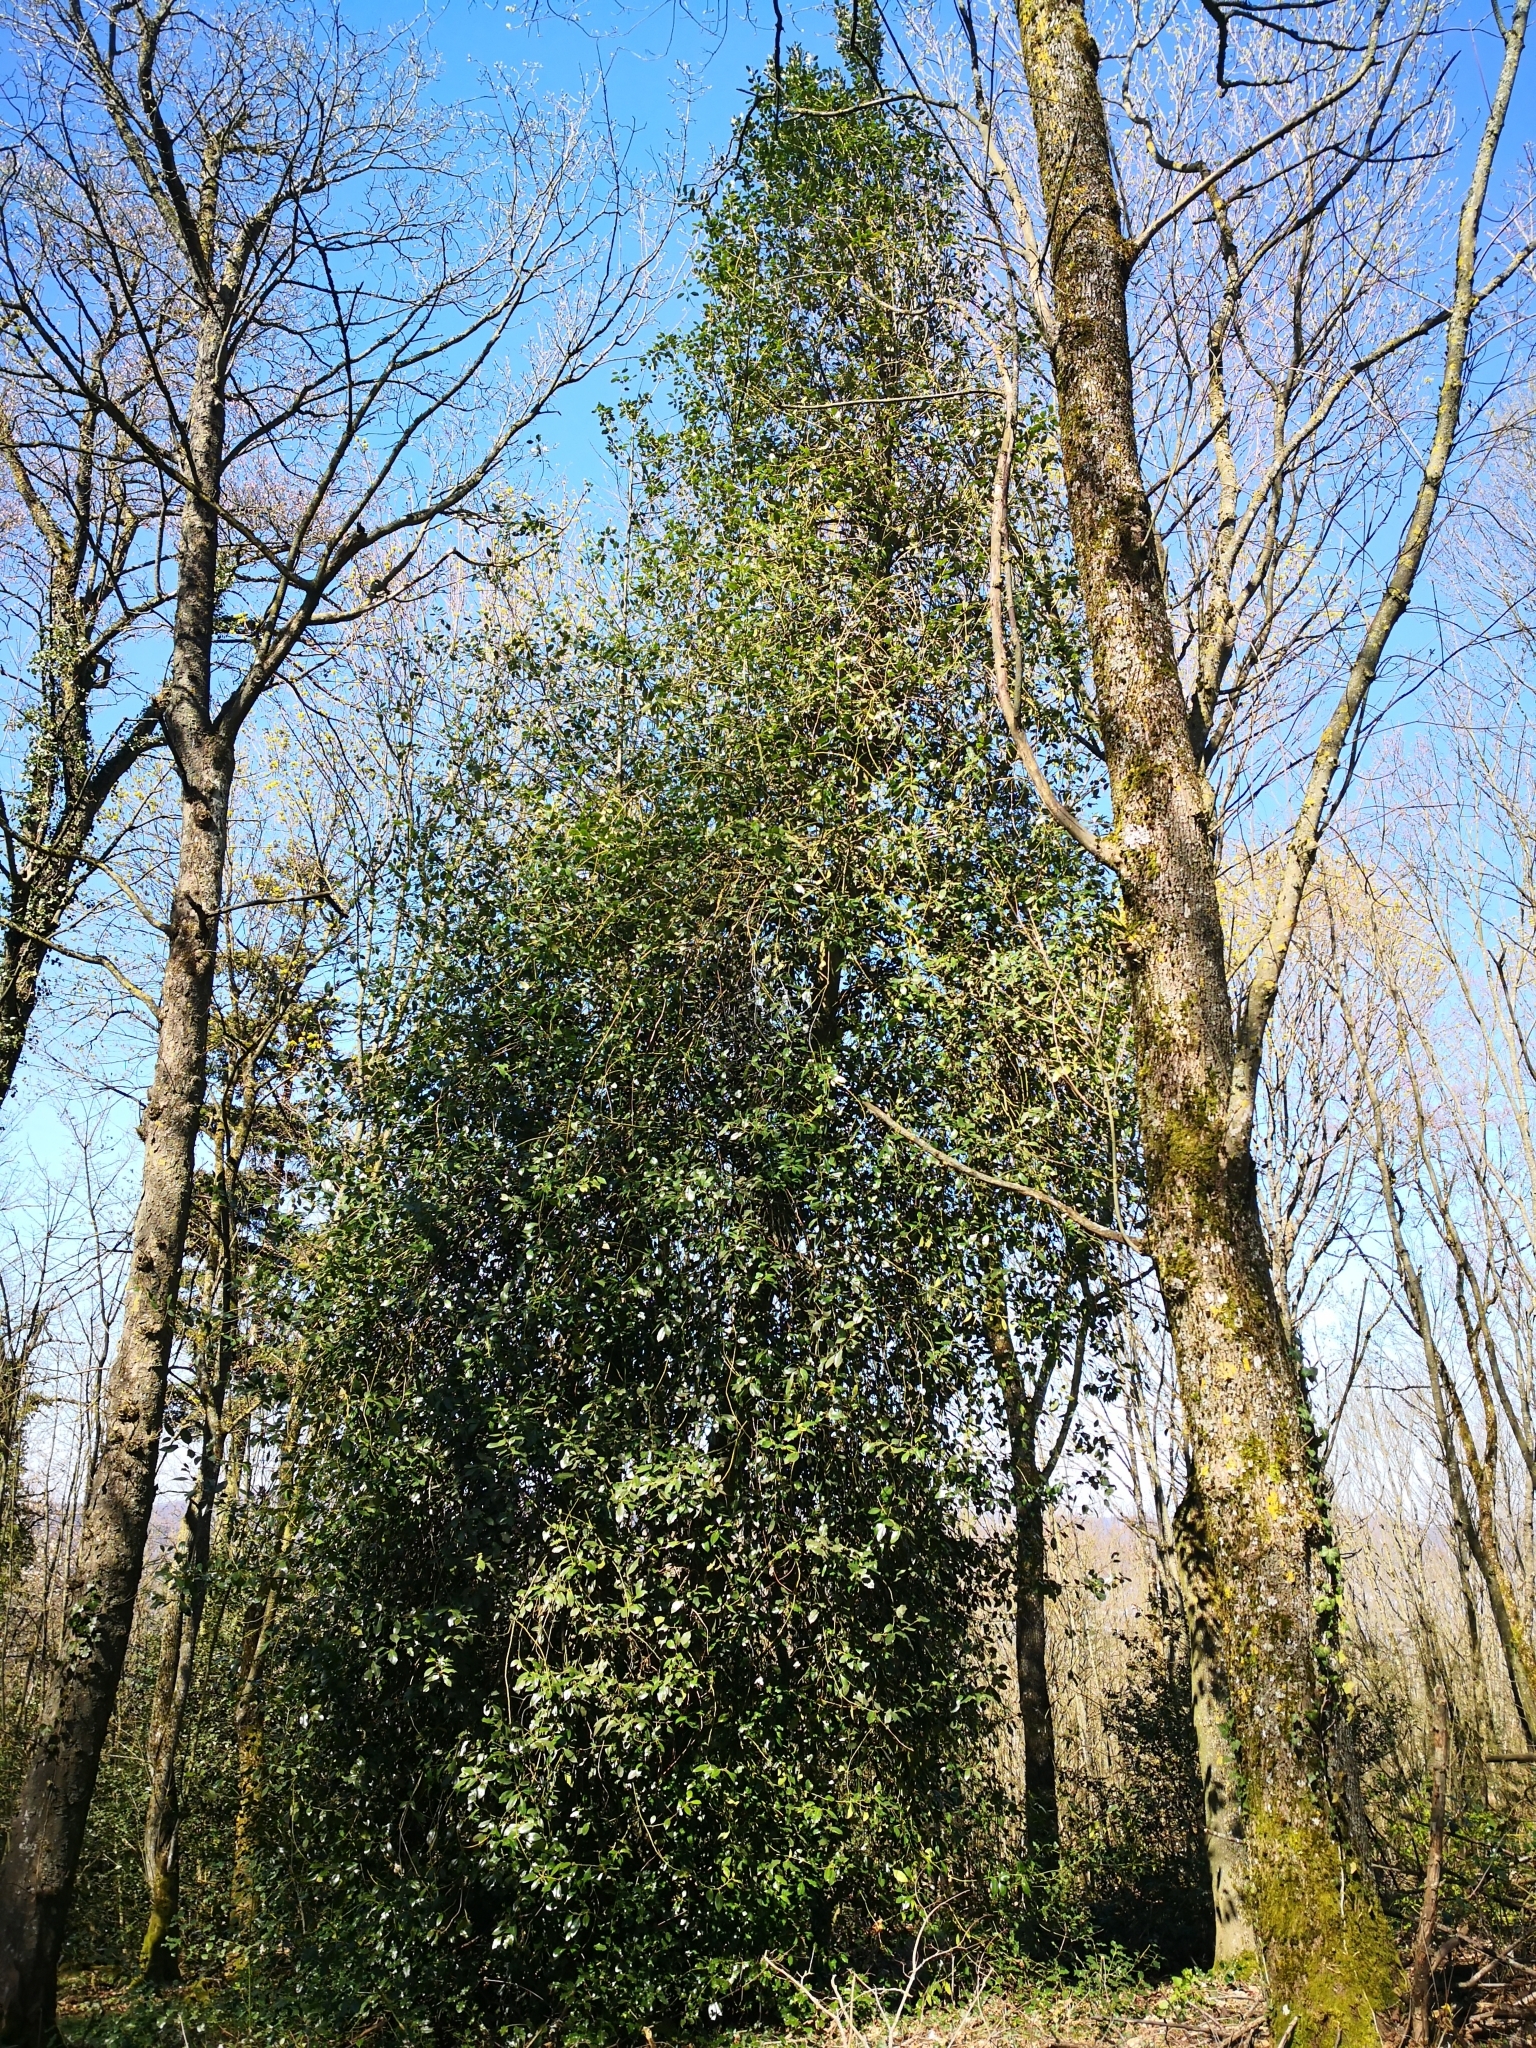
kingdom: Plantae
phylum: Tracheophyta
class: Magnoliopsida
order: Aquifoliales
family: Aquifoliaceae
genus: Ilex
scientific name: Ilex aquifolium
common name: English holly
